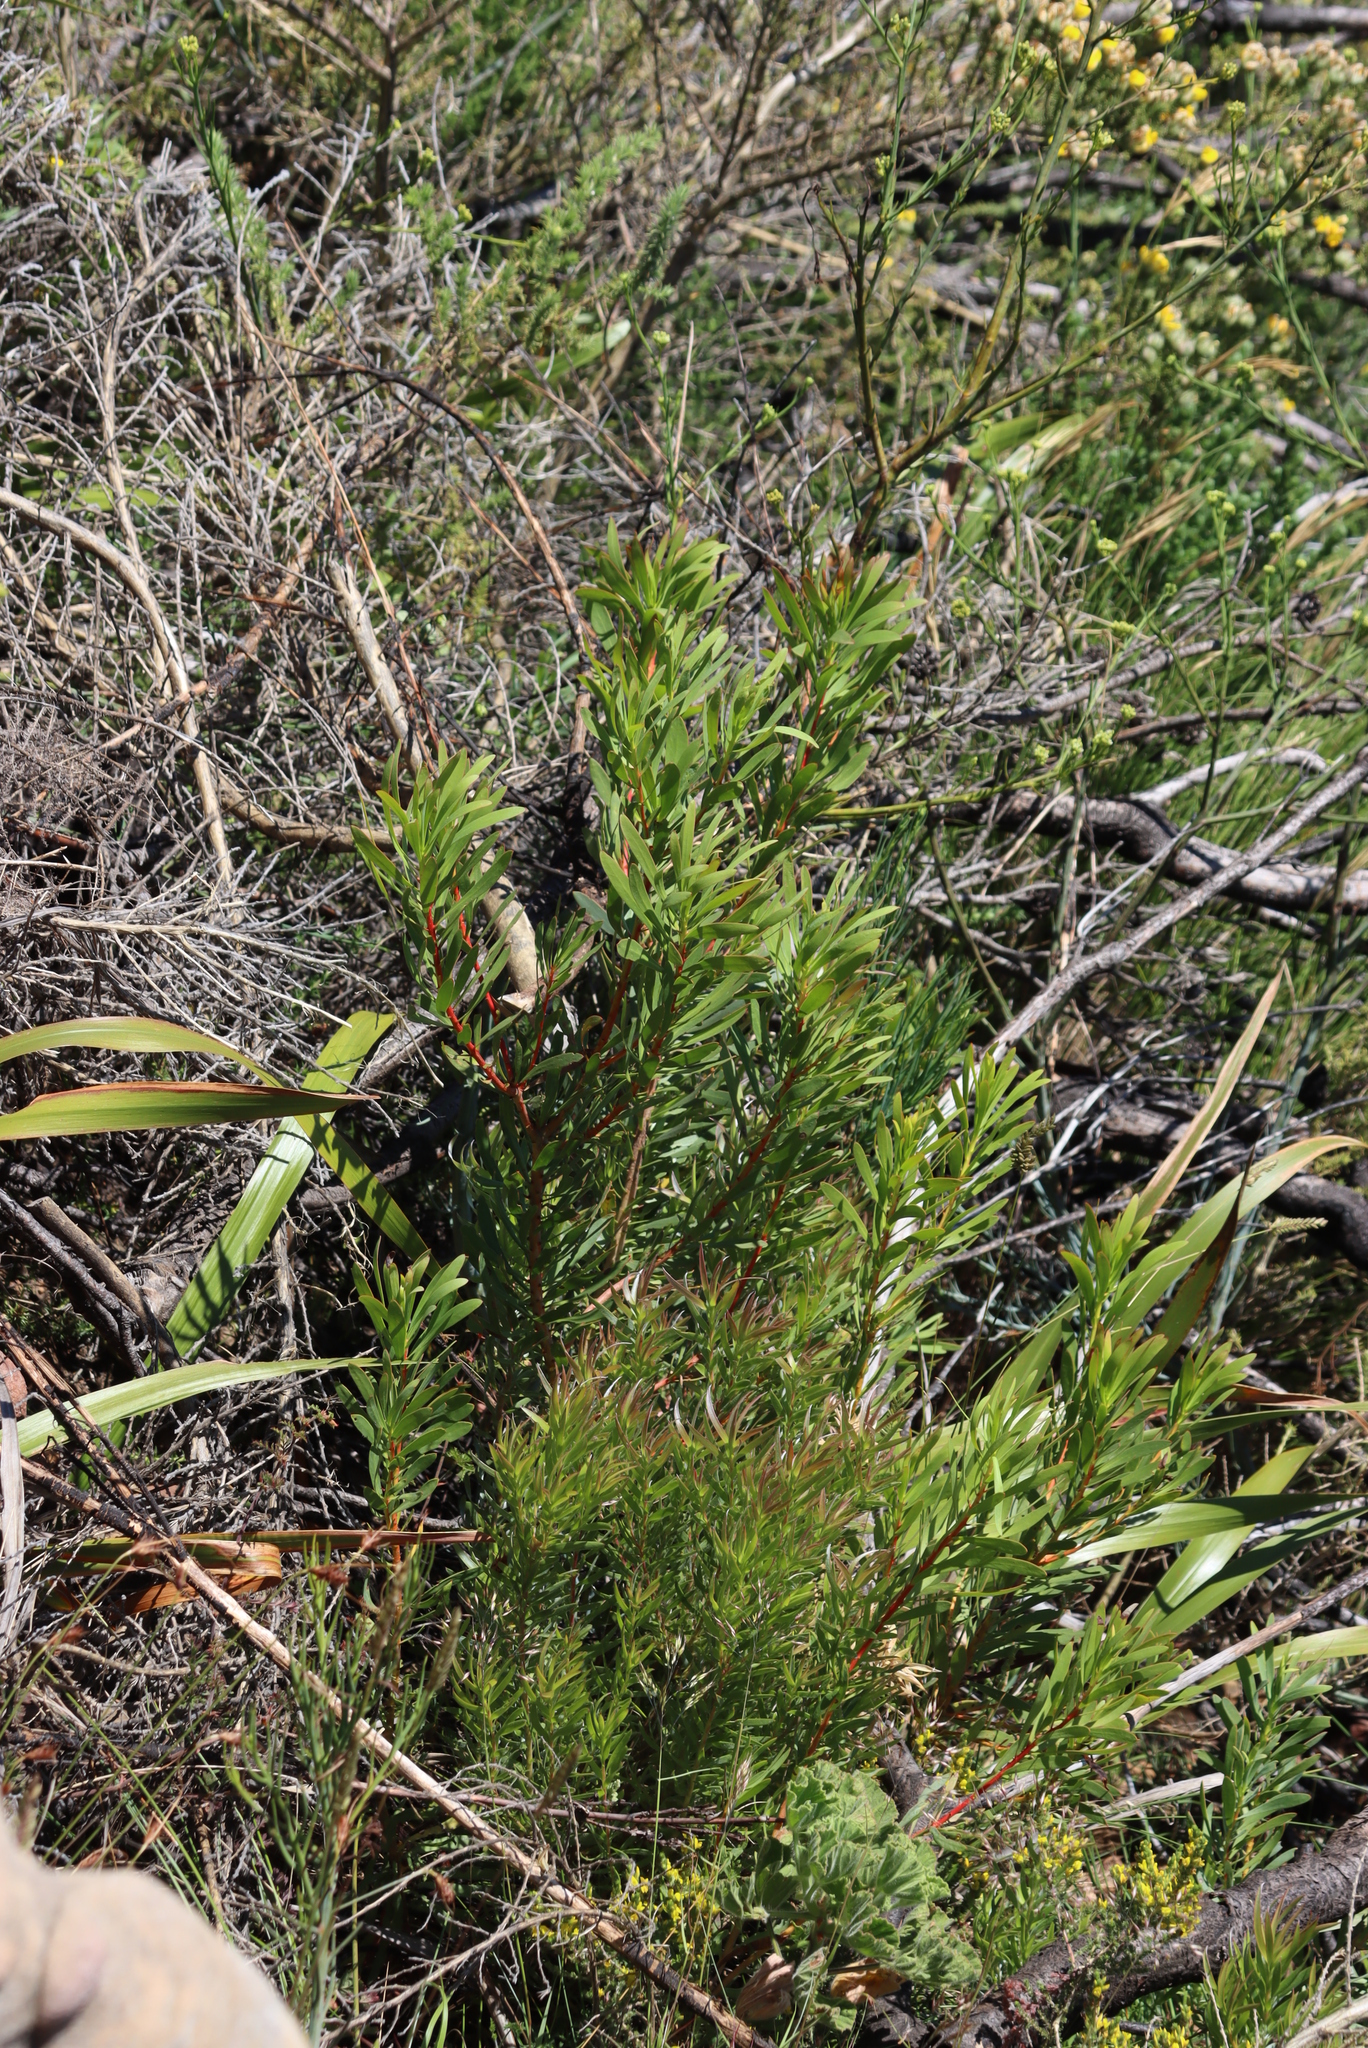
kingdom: Plantae
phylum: Tracheophyta
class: Magnoliopsida
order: Proteales
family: Proteaceae
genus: Protea
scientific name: Protea repens
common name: Sugarbush
